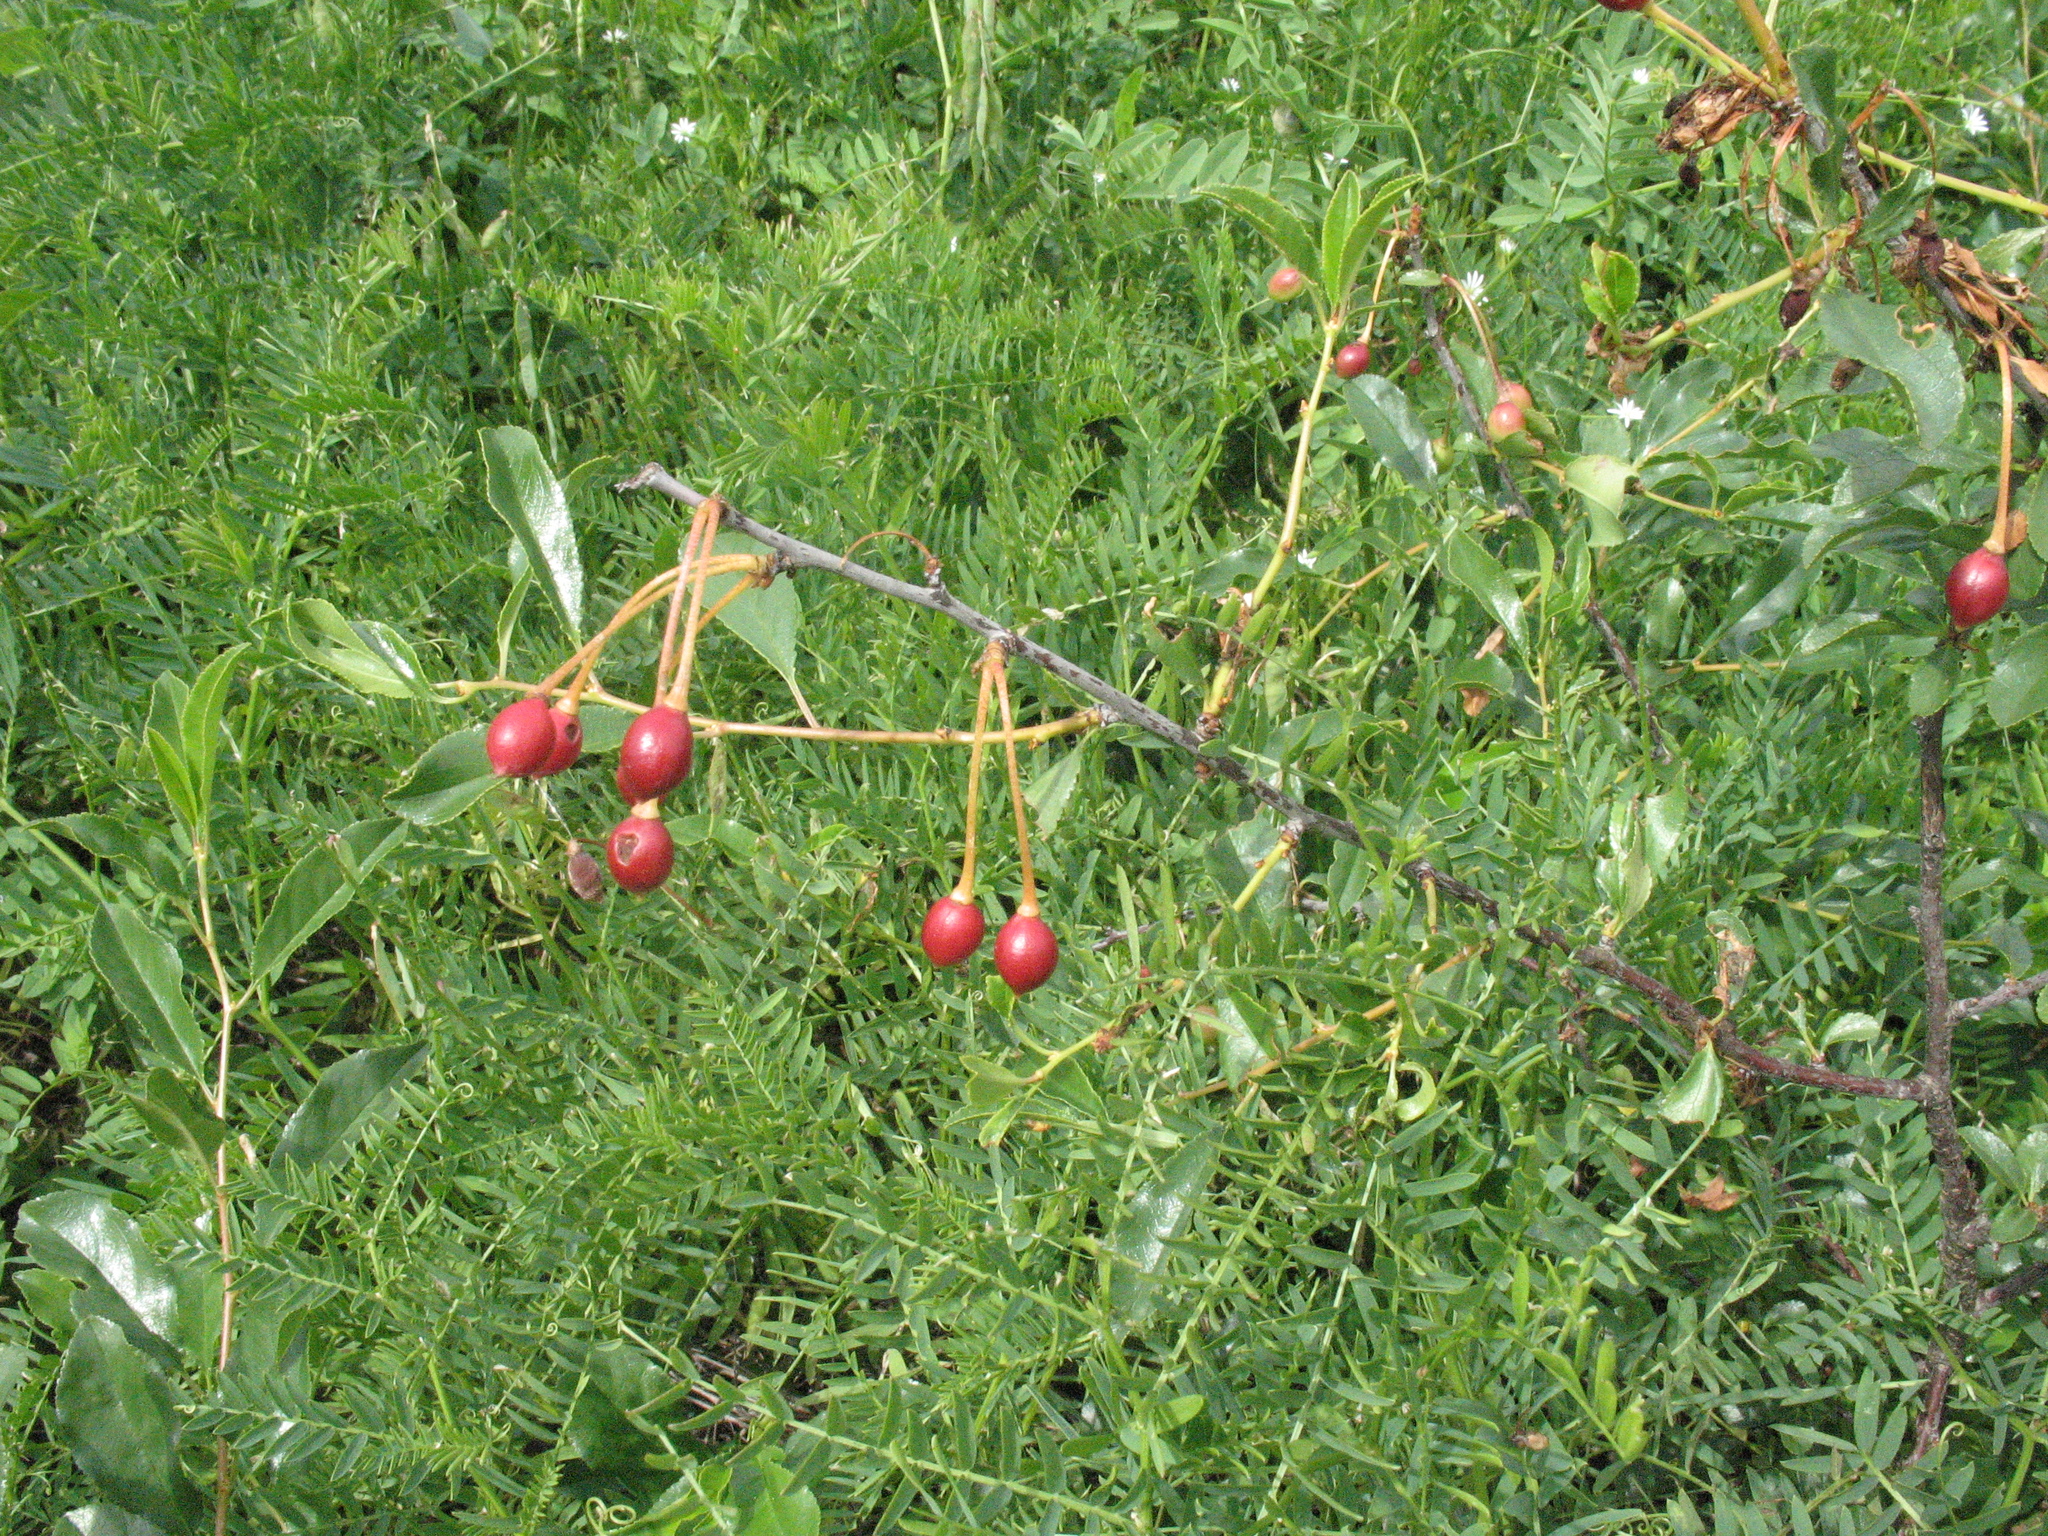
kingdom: Plantae
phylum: Tracheophyta
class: Magnoliopsida
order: Rosales
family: Rosaceae
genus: Prunus
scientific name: Prunus fruticosa
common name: European dwarf cherry
